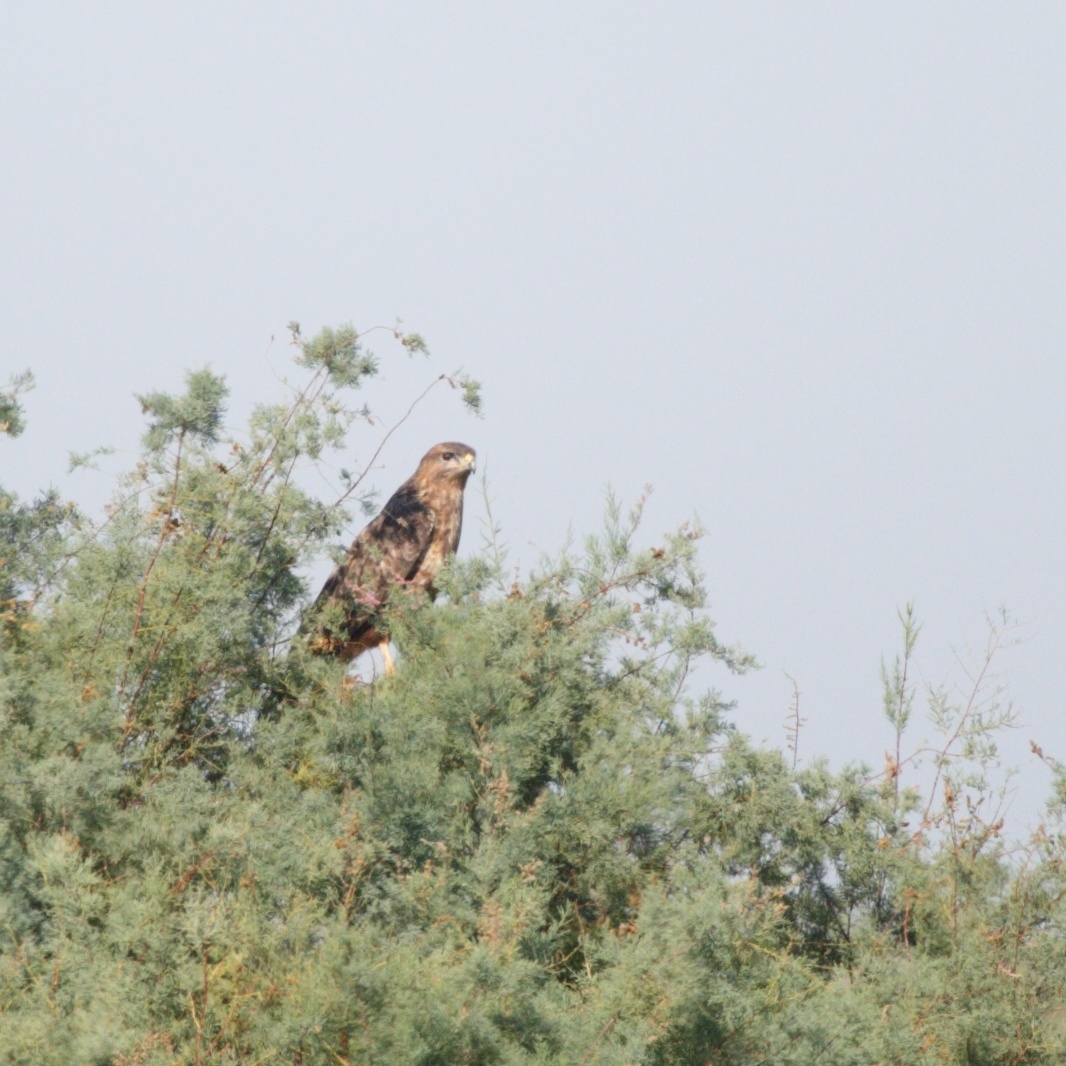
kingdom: Animalia
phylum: Chordata
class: Aves
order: Accipitriformes
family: Accipitridae
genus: Buteo
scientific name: Buteo buteo
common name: Common buzzard
